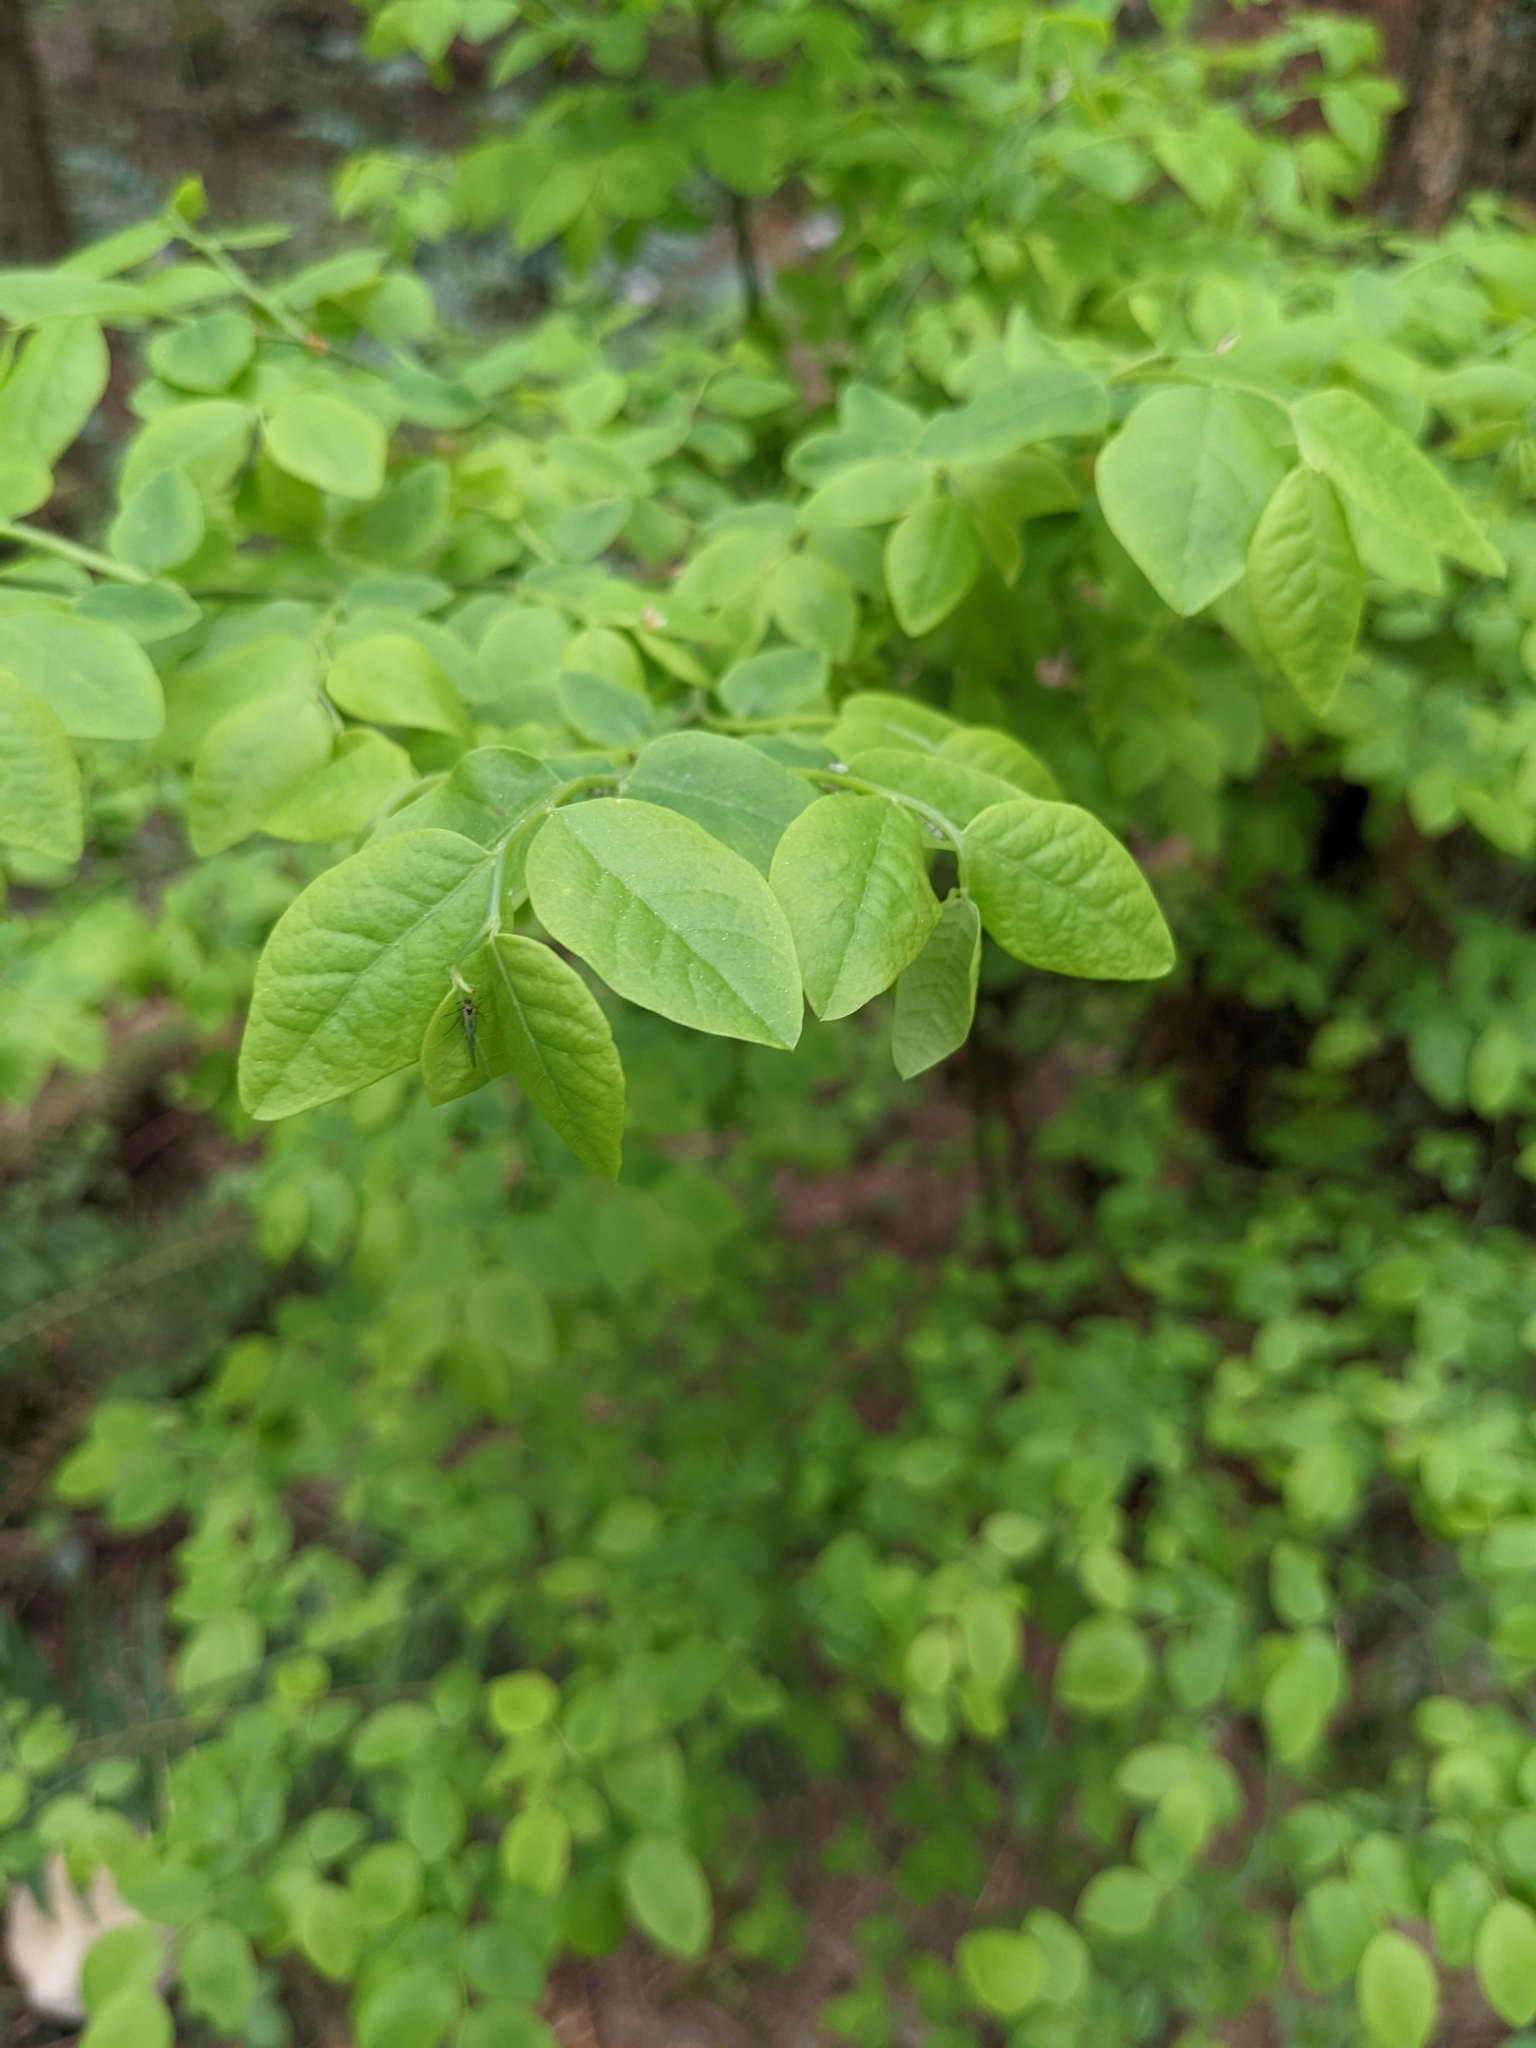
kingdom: Plantae
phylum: Tracheophyta
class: Magnoliopsida
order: Ericales
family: Ericaceae
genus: Vaccinium
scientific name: Vaccinium parvifolium
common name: Red-huckleberry
